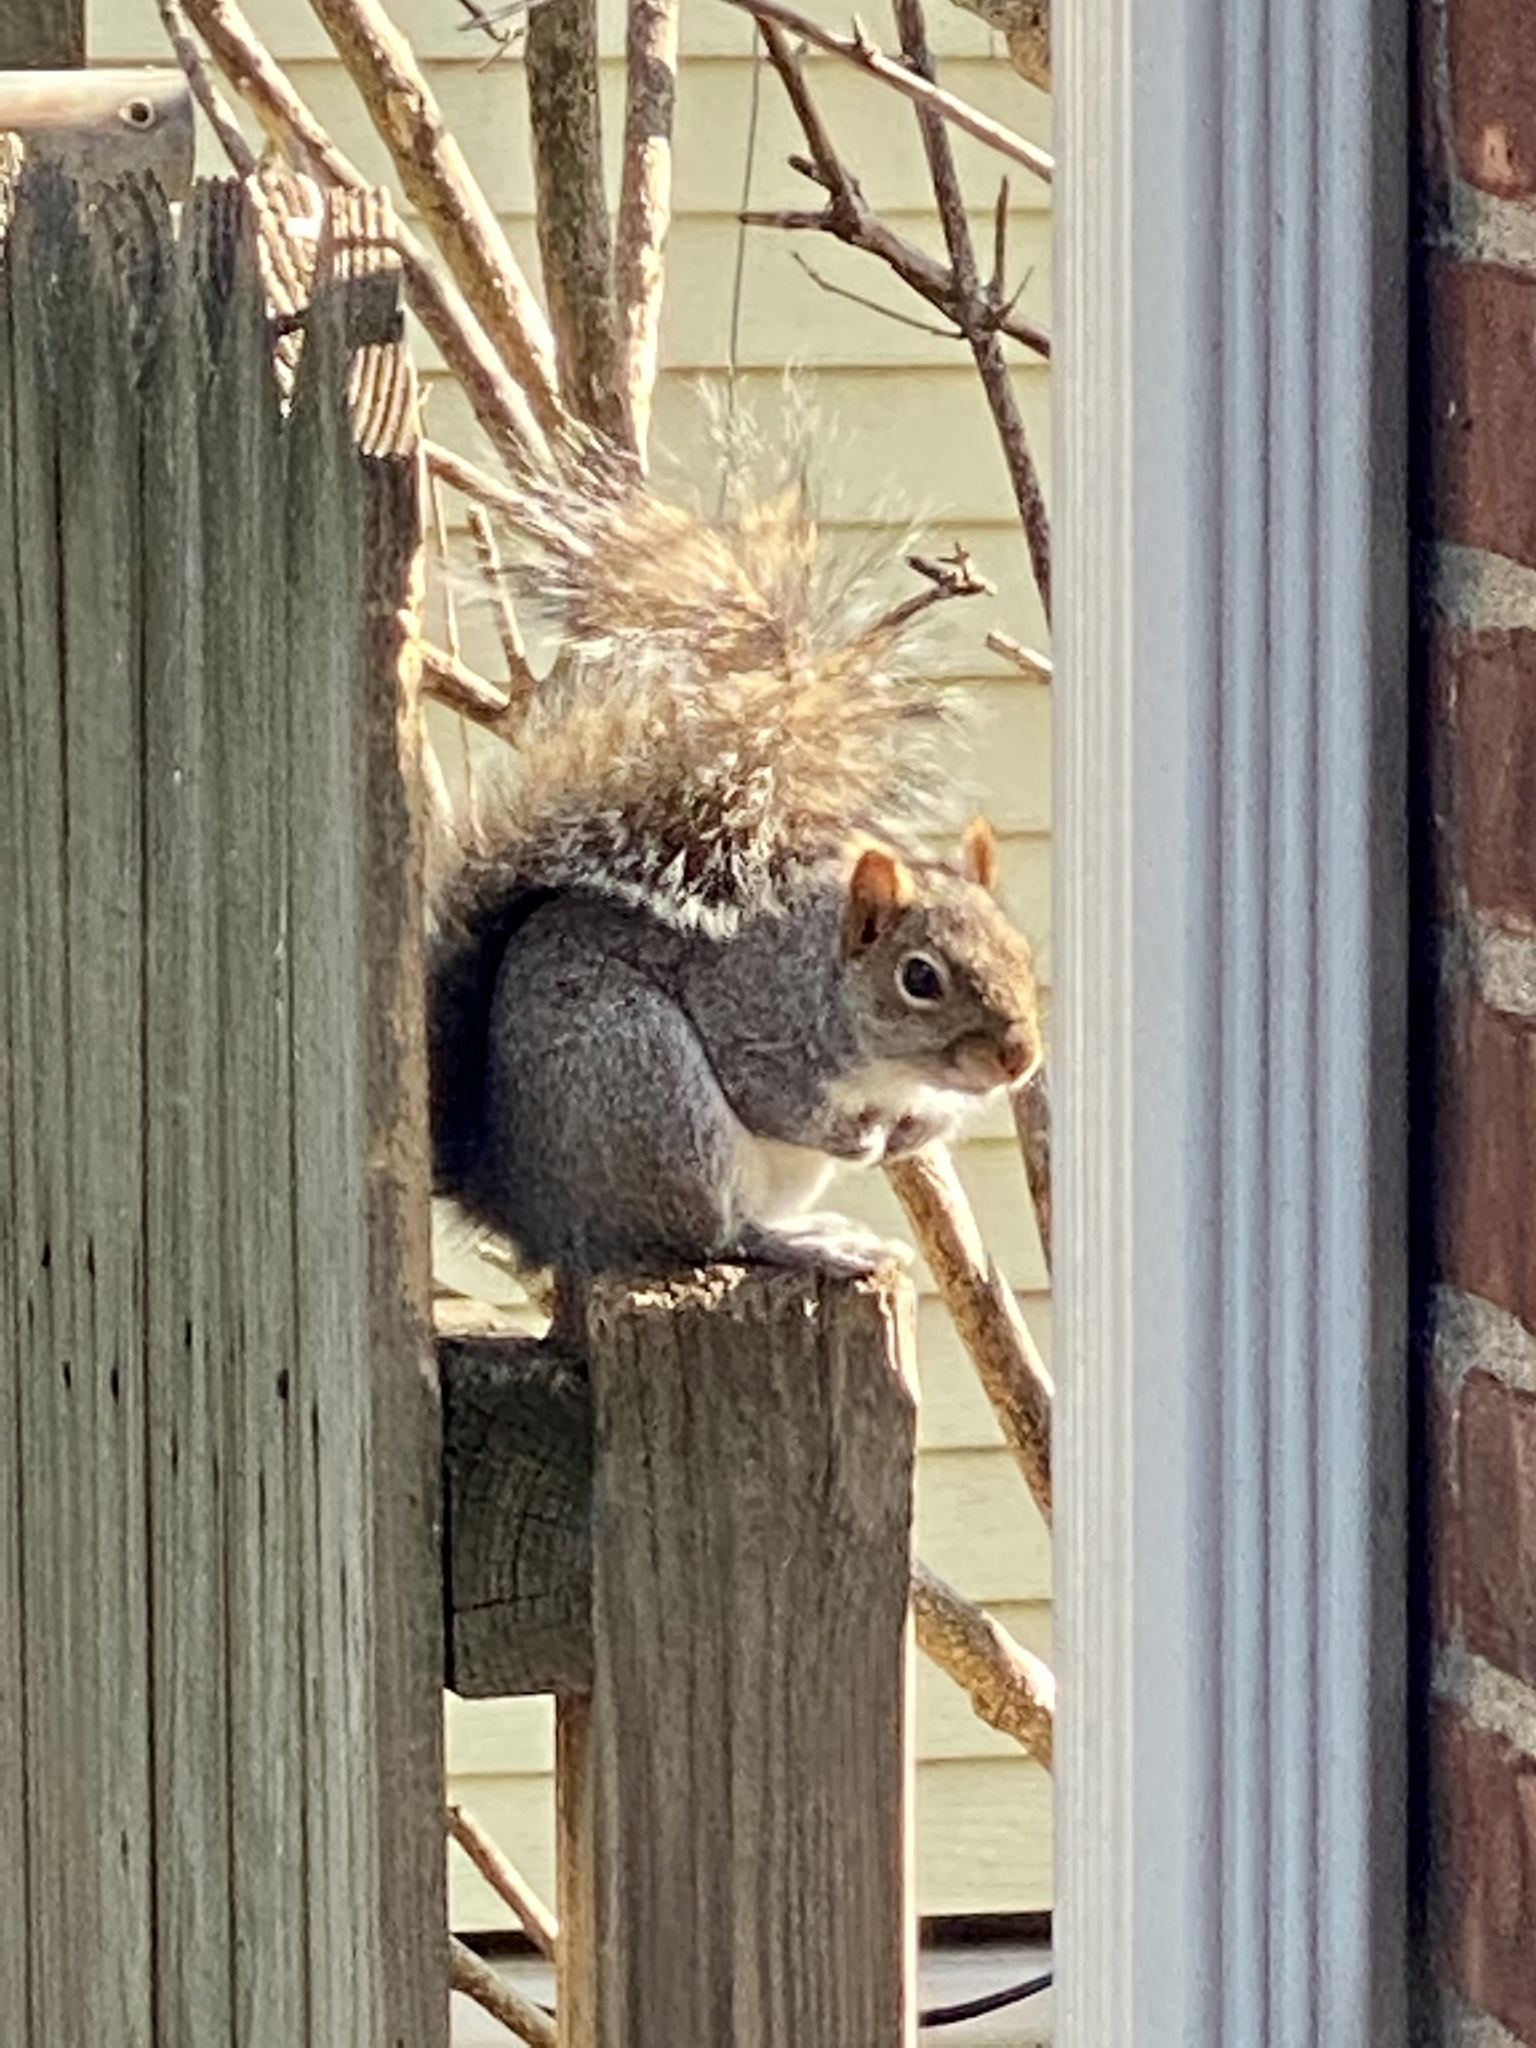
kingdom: Animalia
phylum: Chordata
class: Mammalia
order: Rodentia
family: Sciuridae
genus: Sciurus
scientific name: Sciurus carolinensis
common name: Eastern gray squirrel
